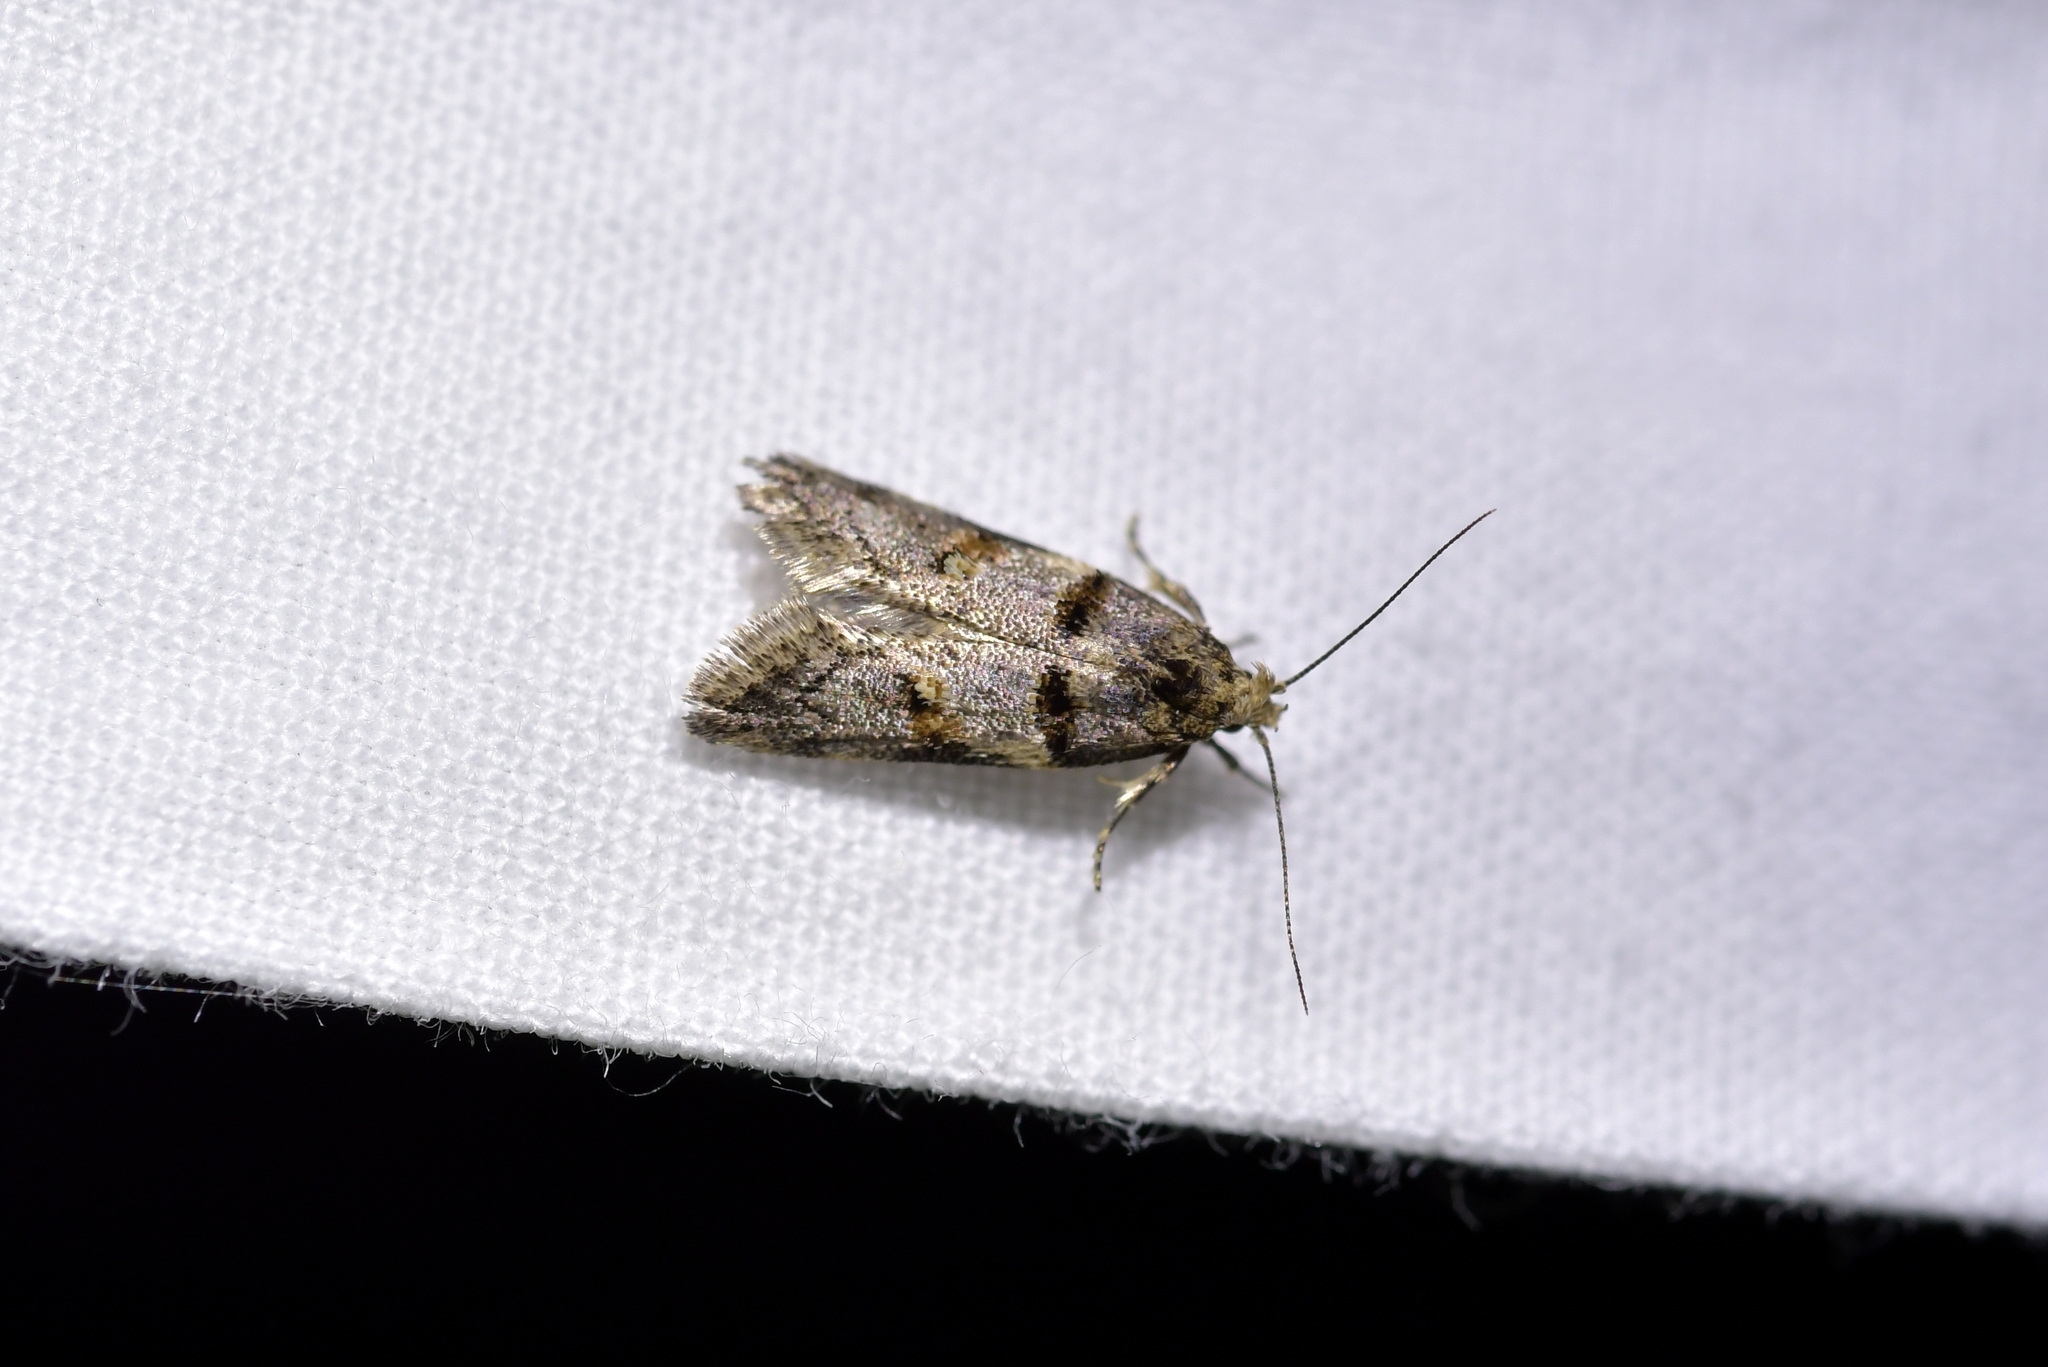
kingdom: Animalia
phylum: Arthropoda
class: Insecta
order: Lepidoptera
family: Oecophoridae
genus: Trachypepla
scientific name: Trachypepla contritella
